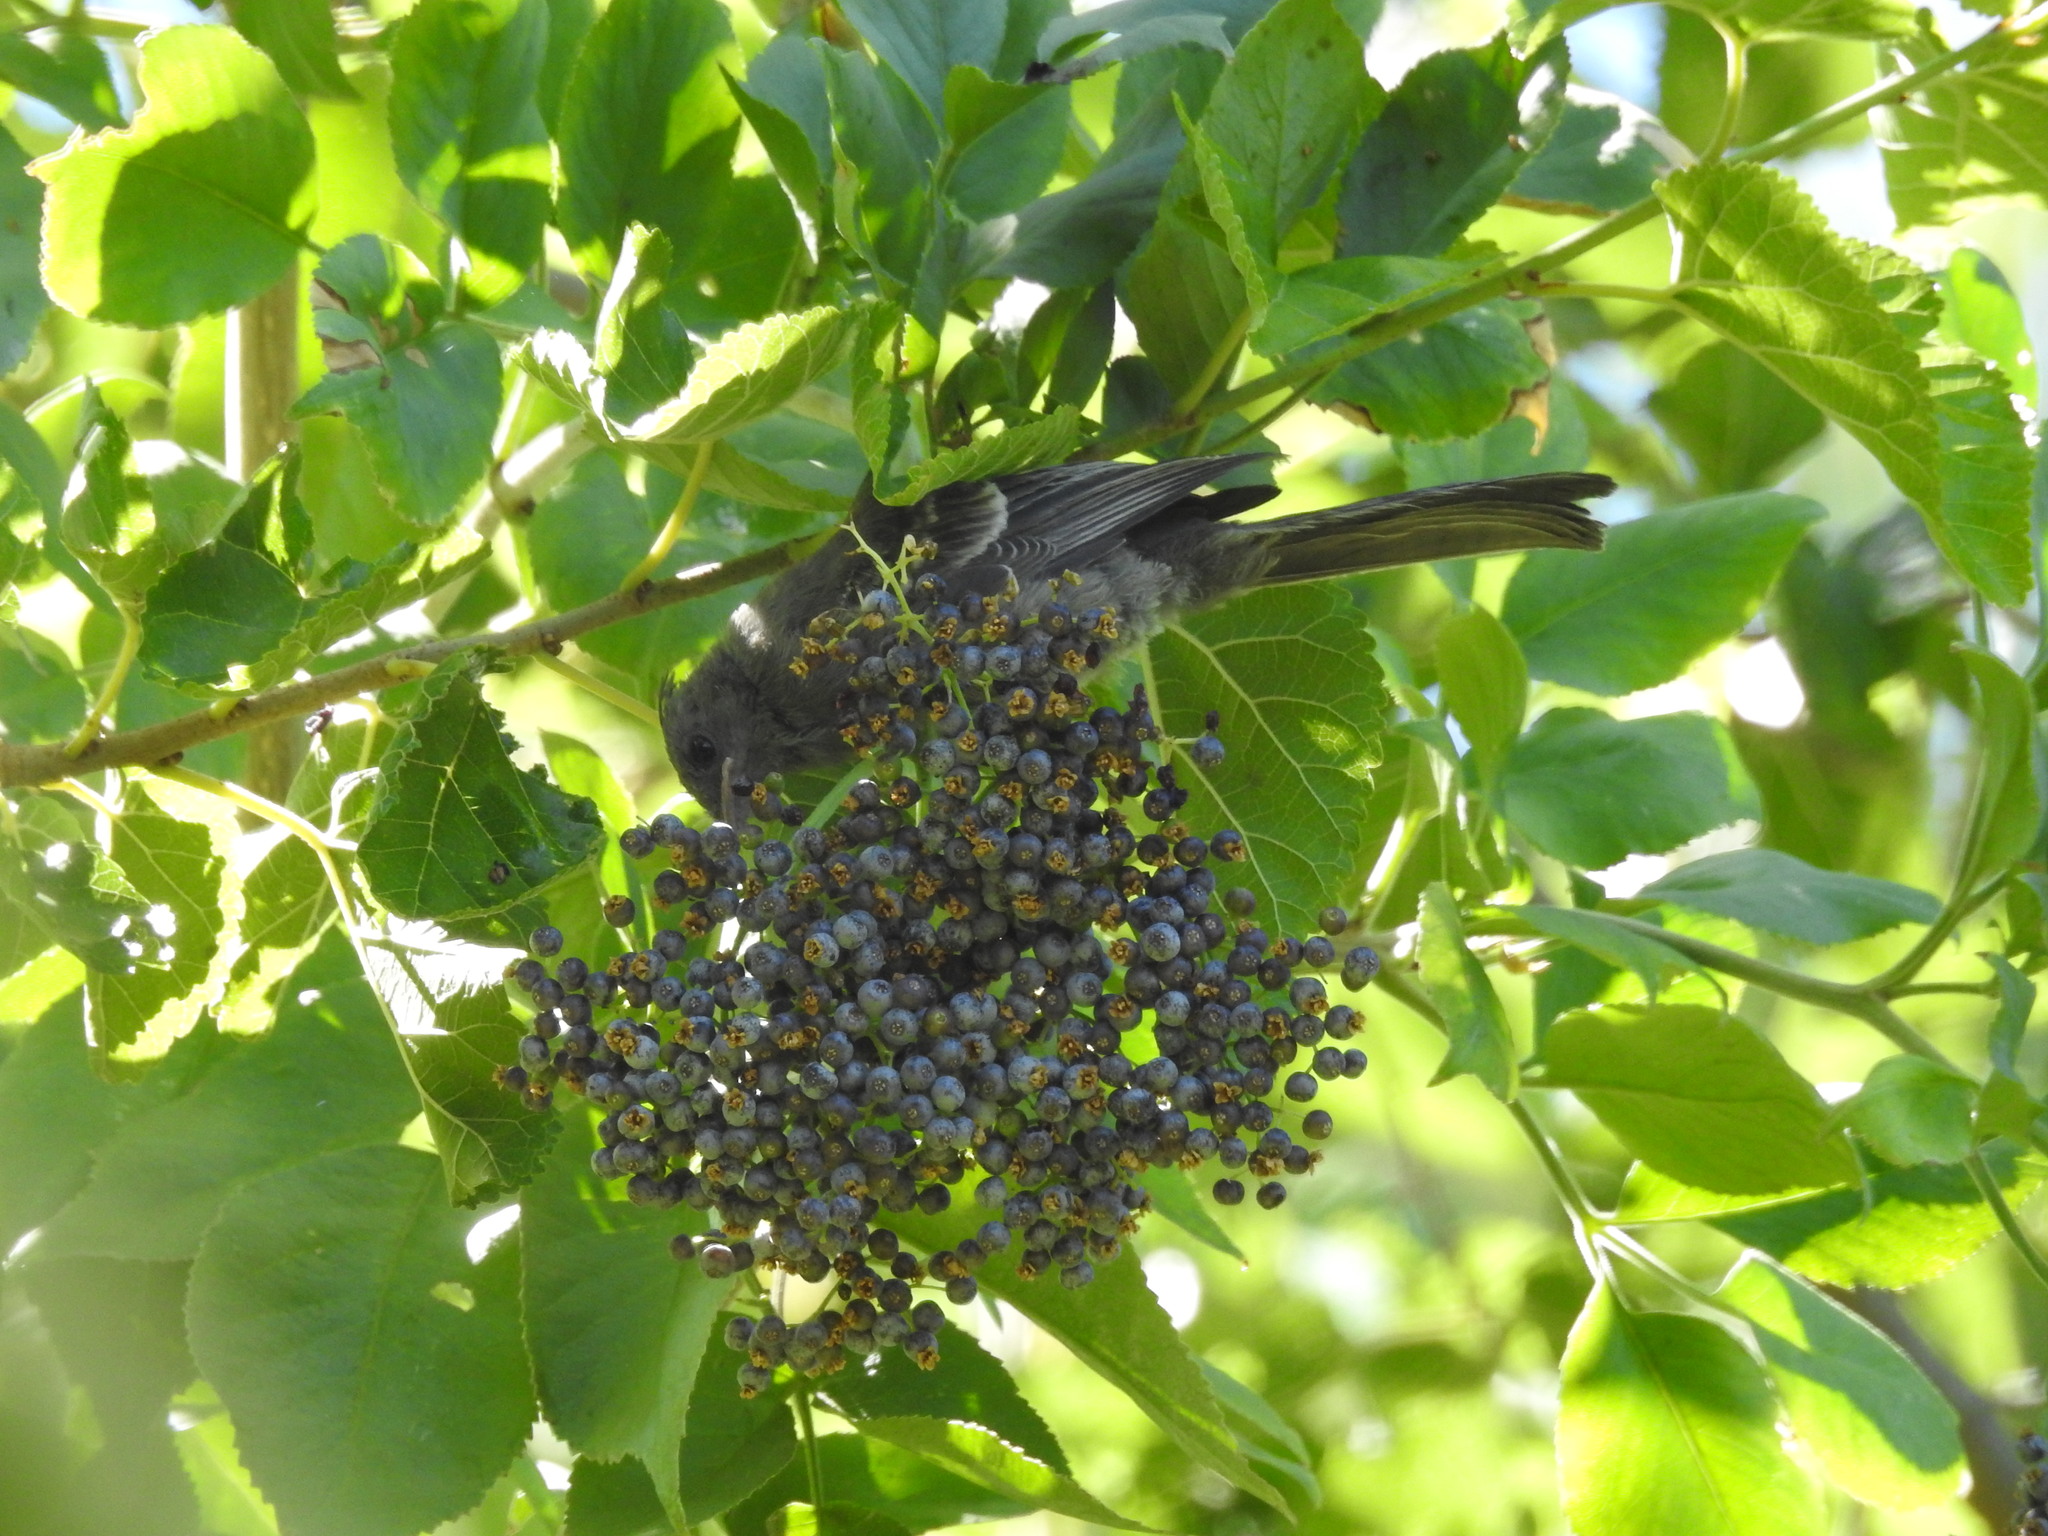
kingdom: Animalia
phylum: Chordata
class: Aves
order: Passeriformes
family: Ptilogonatidae
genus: Phainopepla
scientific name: Phainopepla nitens
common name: Phainopepla
